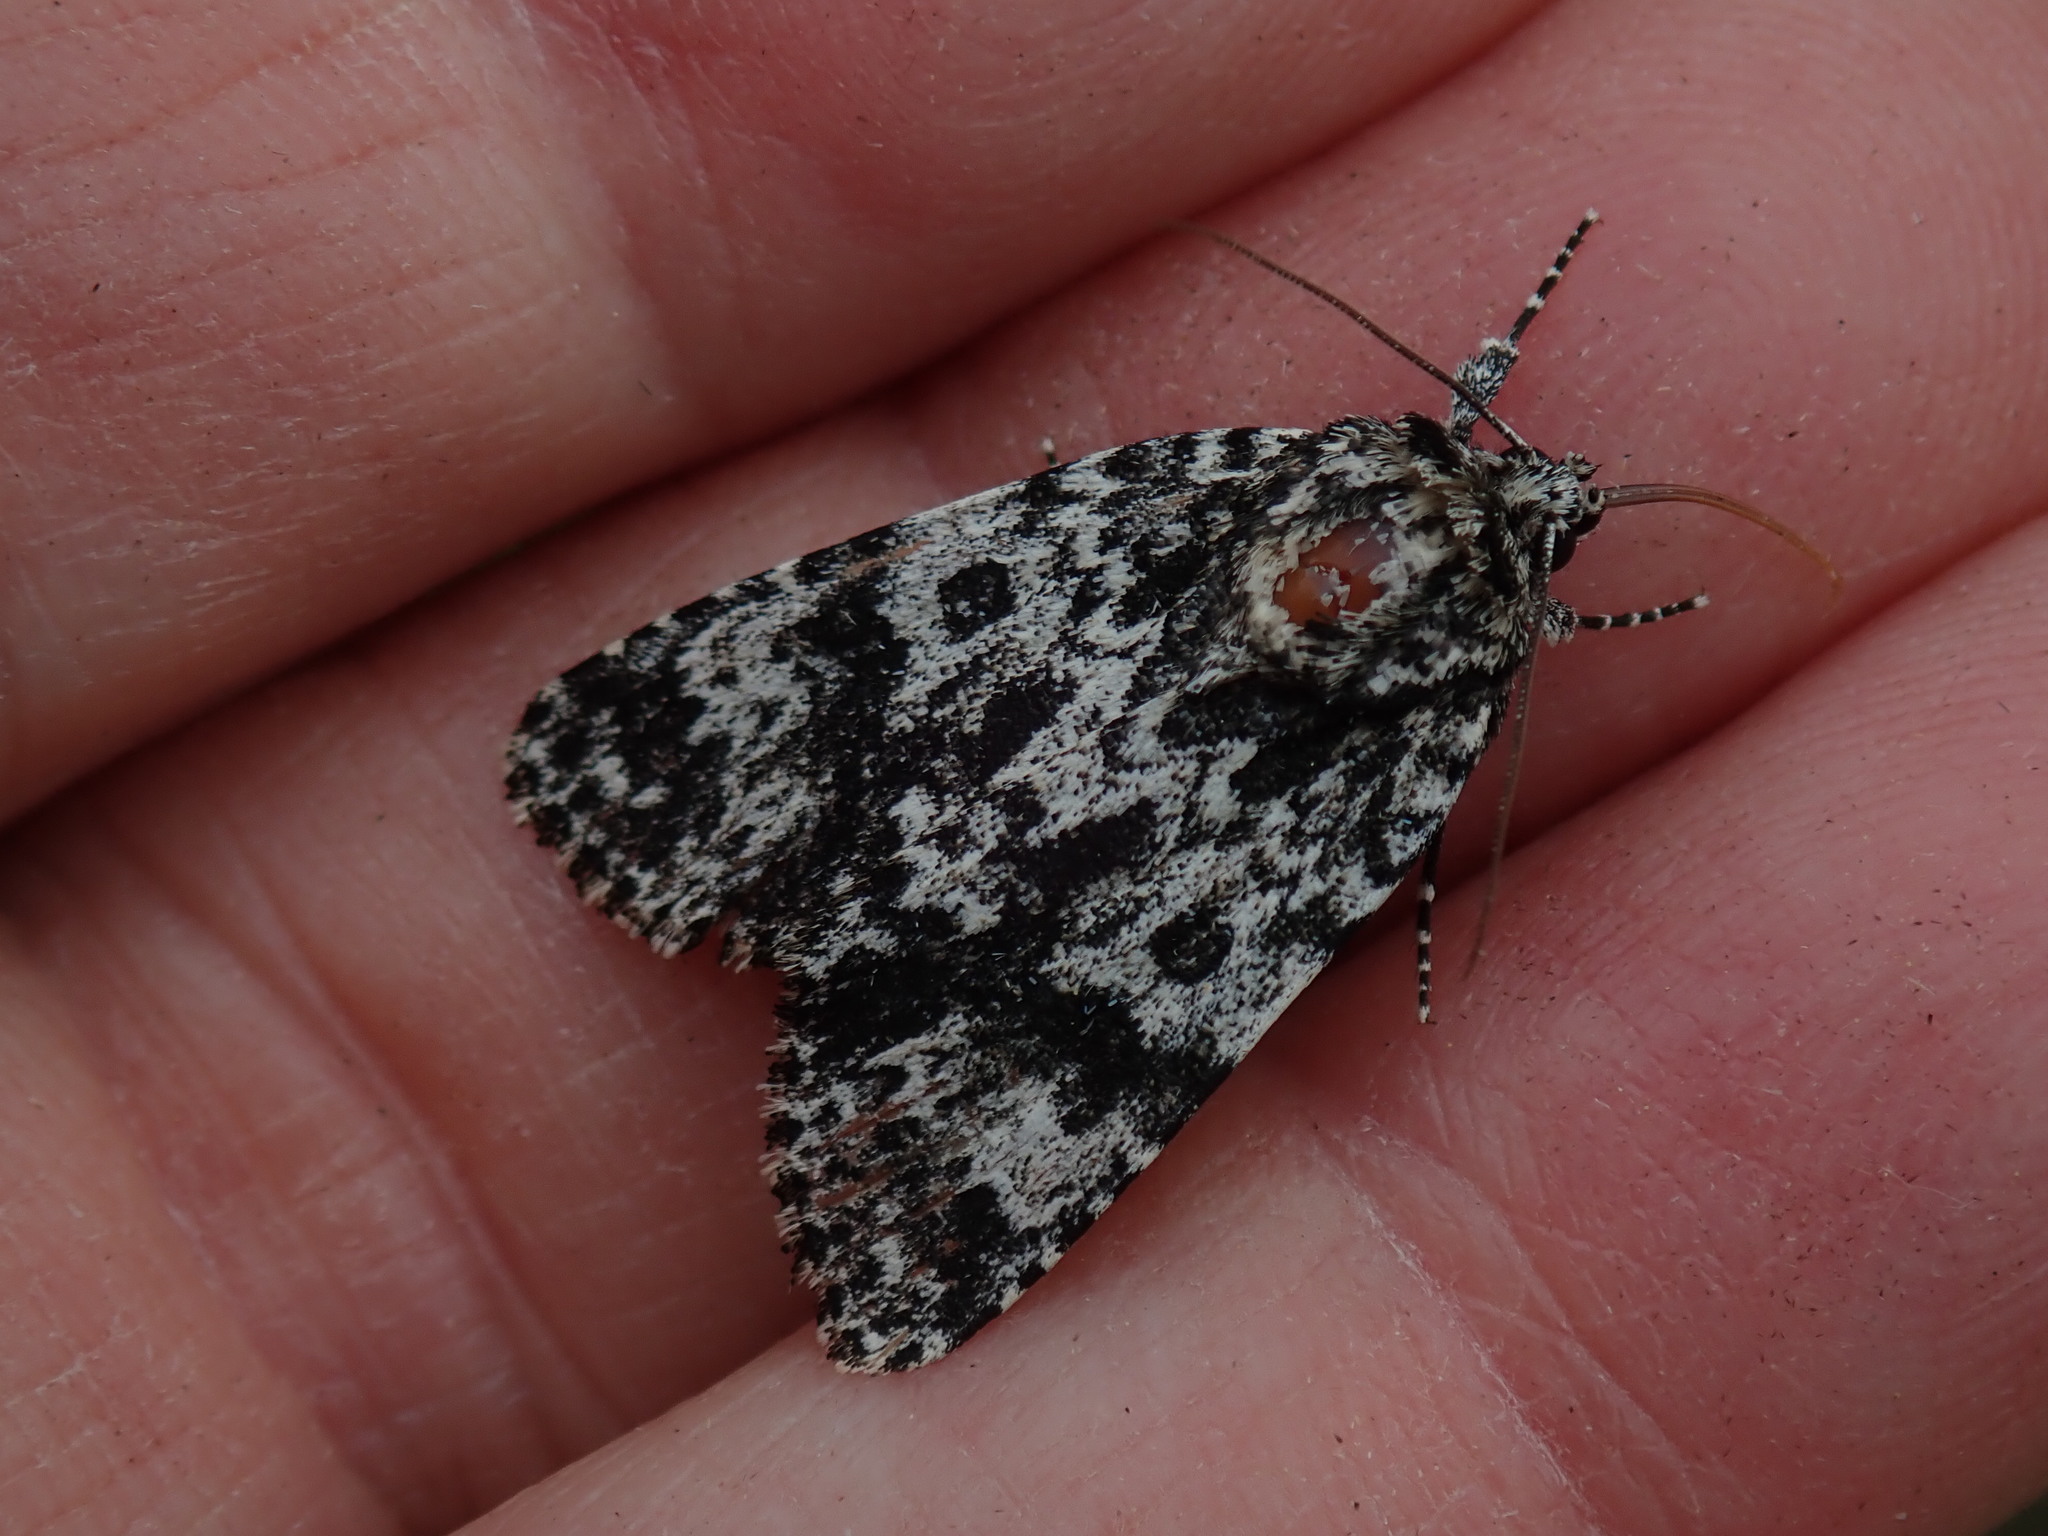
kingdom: Animalia
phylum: Arthropoda
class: Insecta
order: Lepidoptera
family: Noctuidae
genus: Acronicta
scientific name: Acronicta noctivaga
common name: Night-wandering dagger
